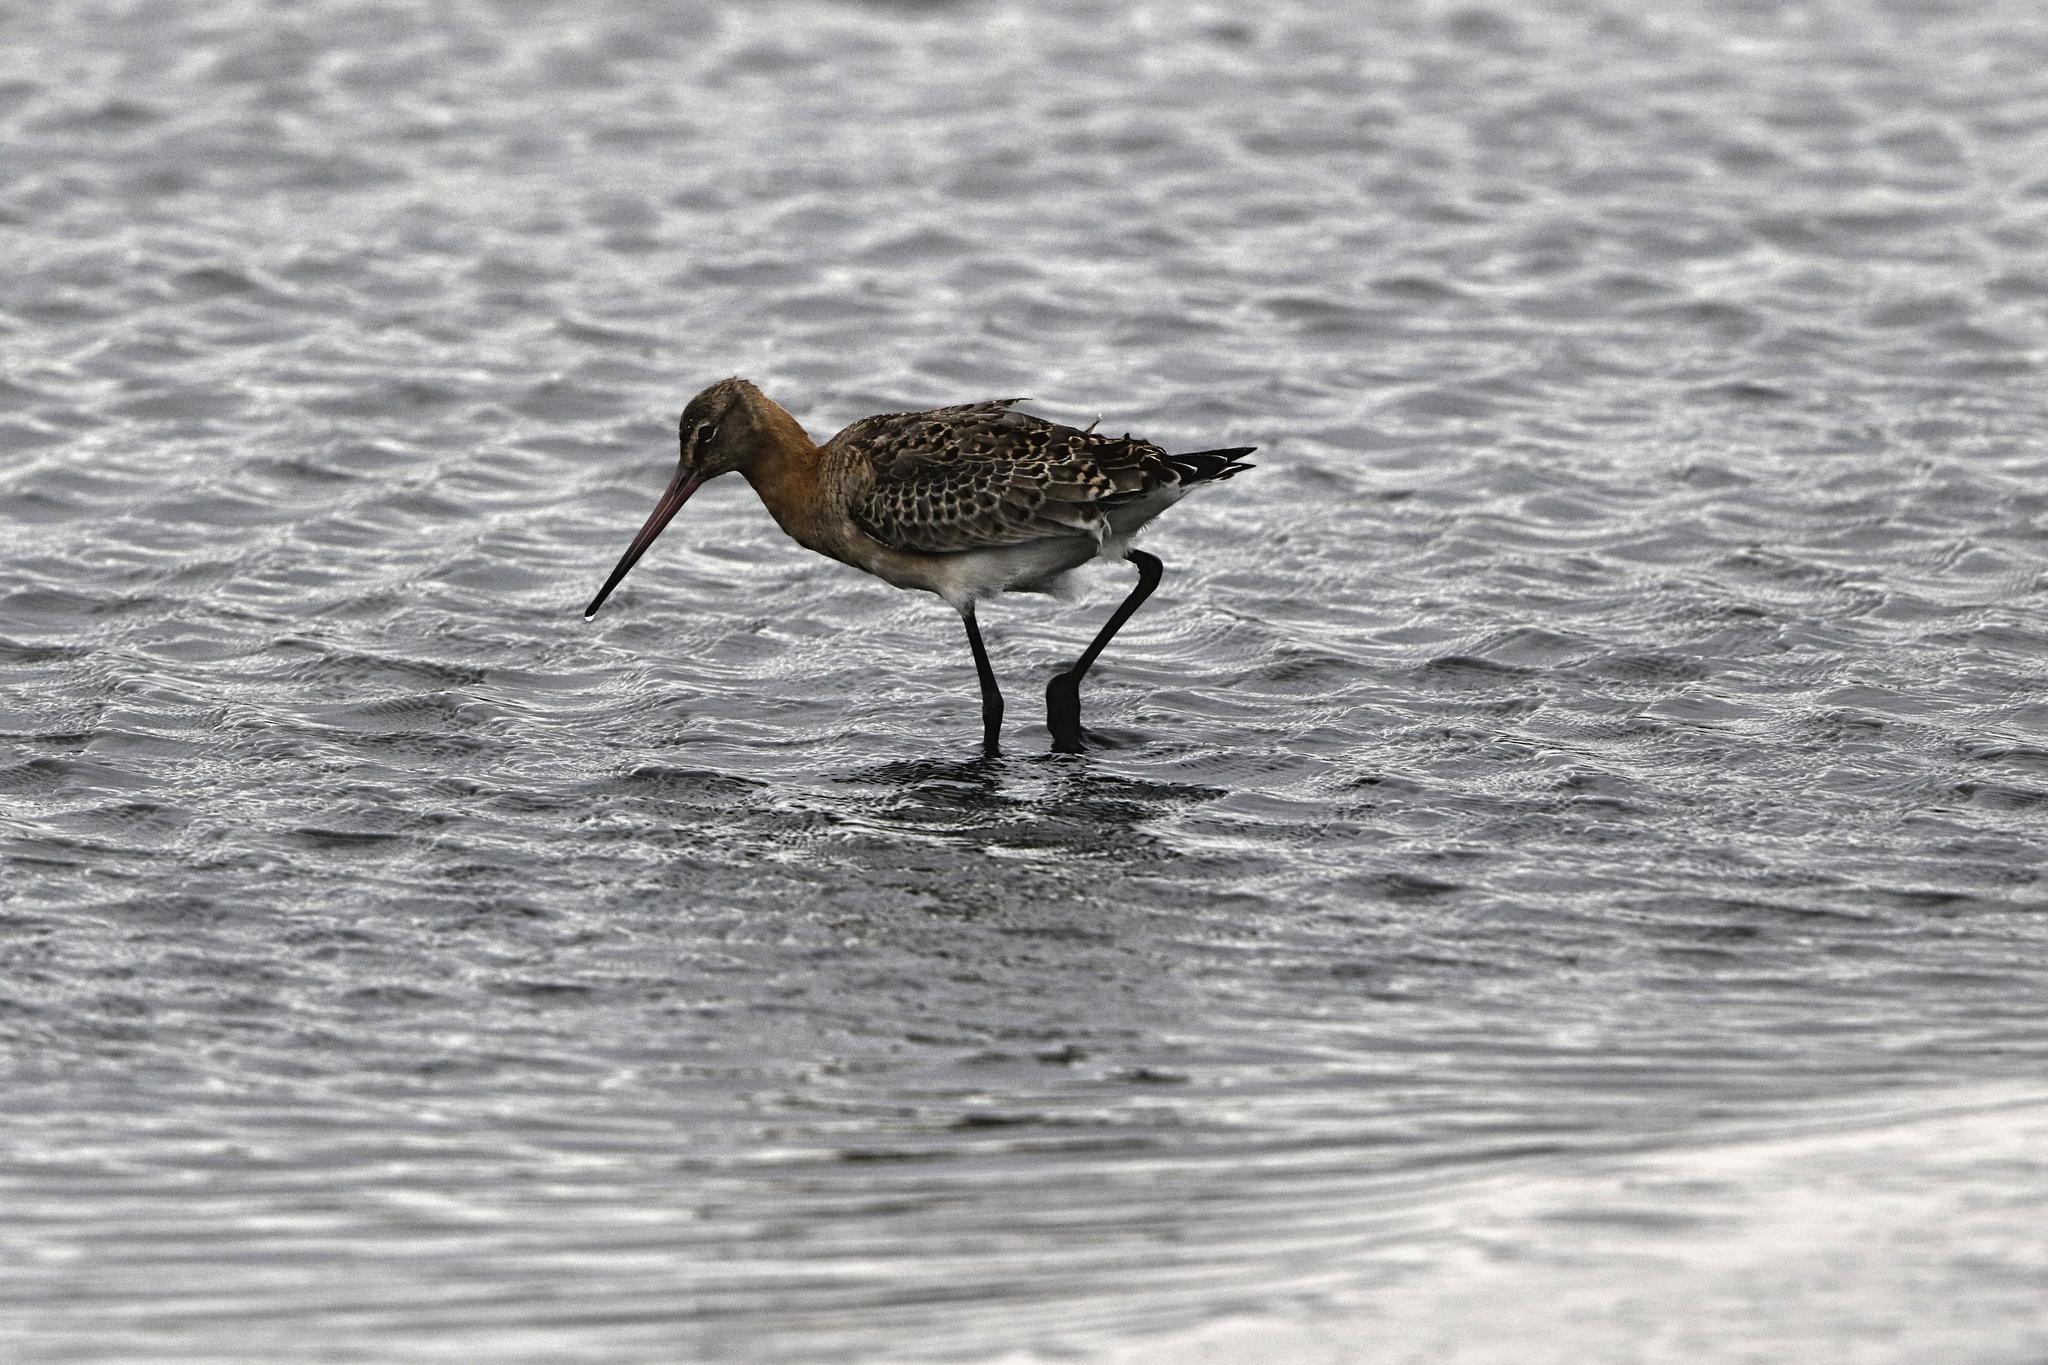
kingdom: Animalia
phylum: Chordata
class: Aves
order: Charadriiformes
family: Scolopacidae
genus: Limosa
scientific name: Limosa limosa
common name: Black-tailed godwit
